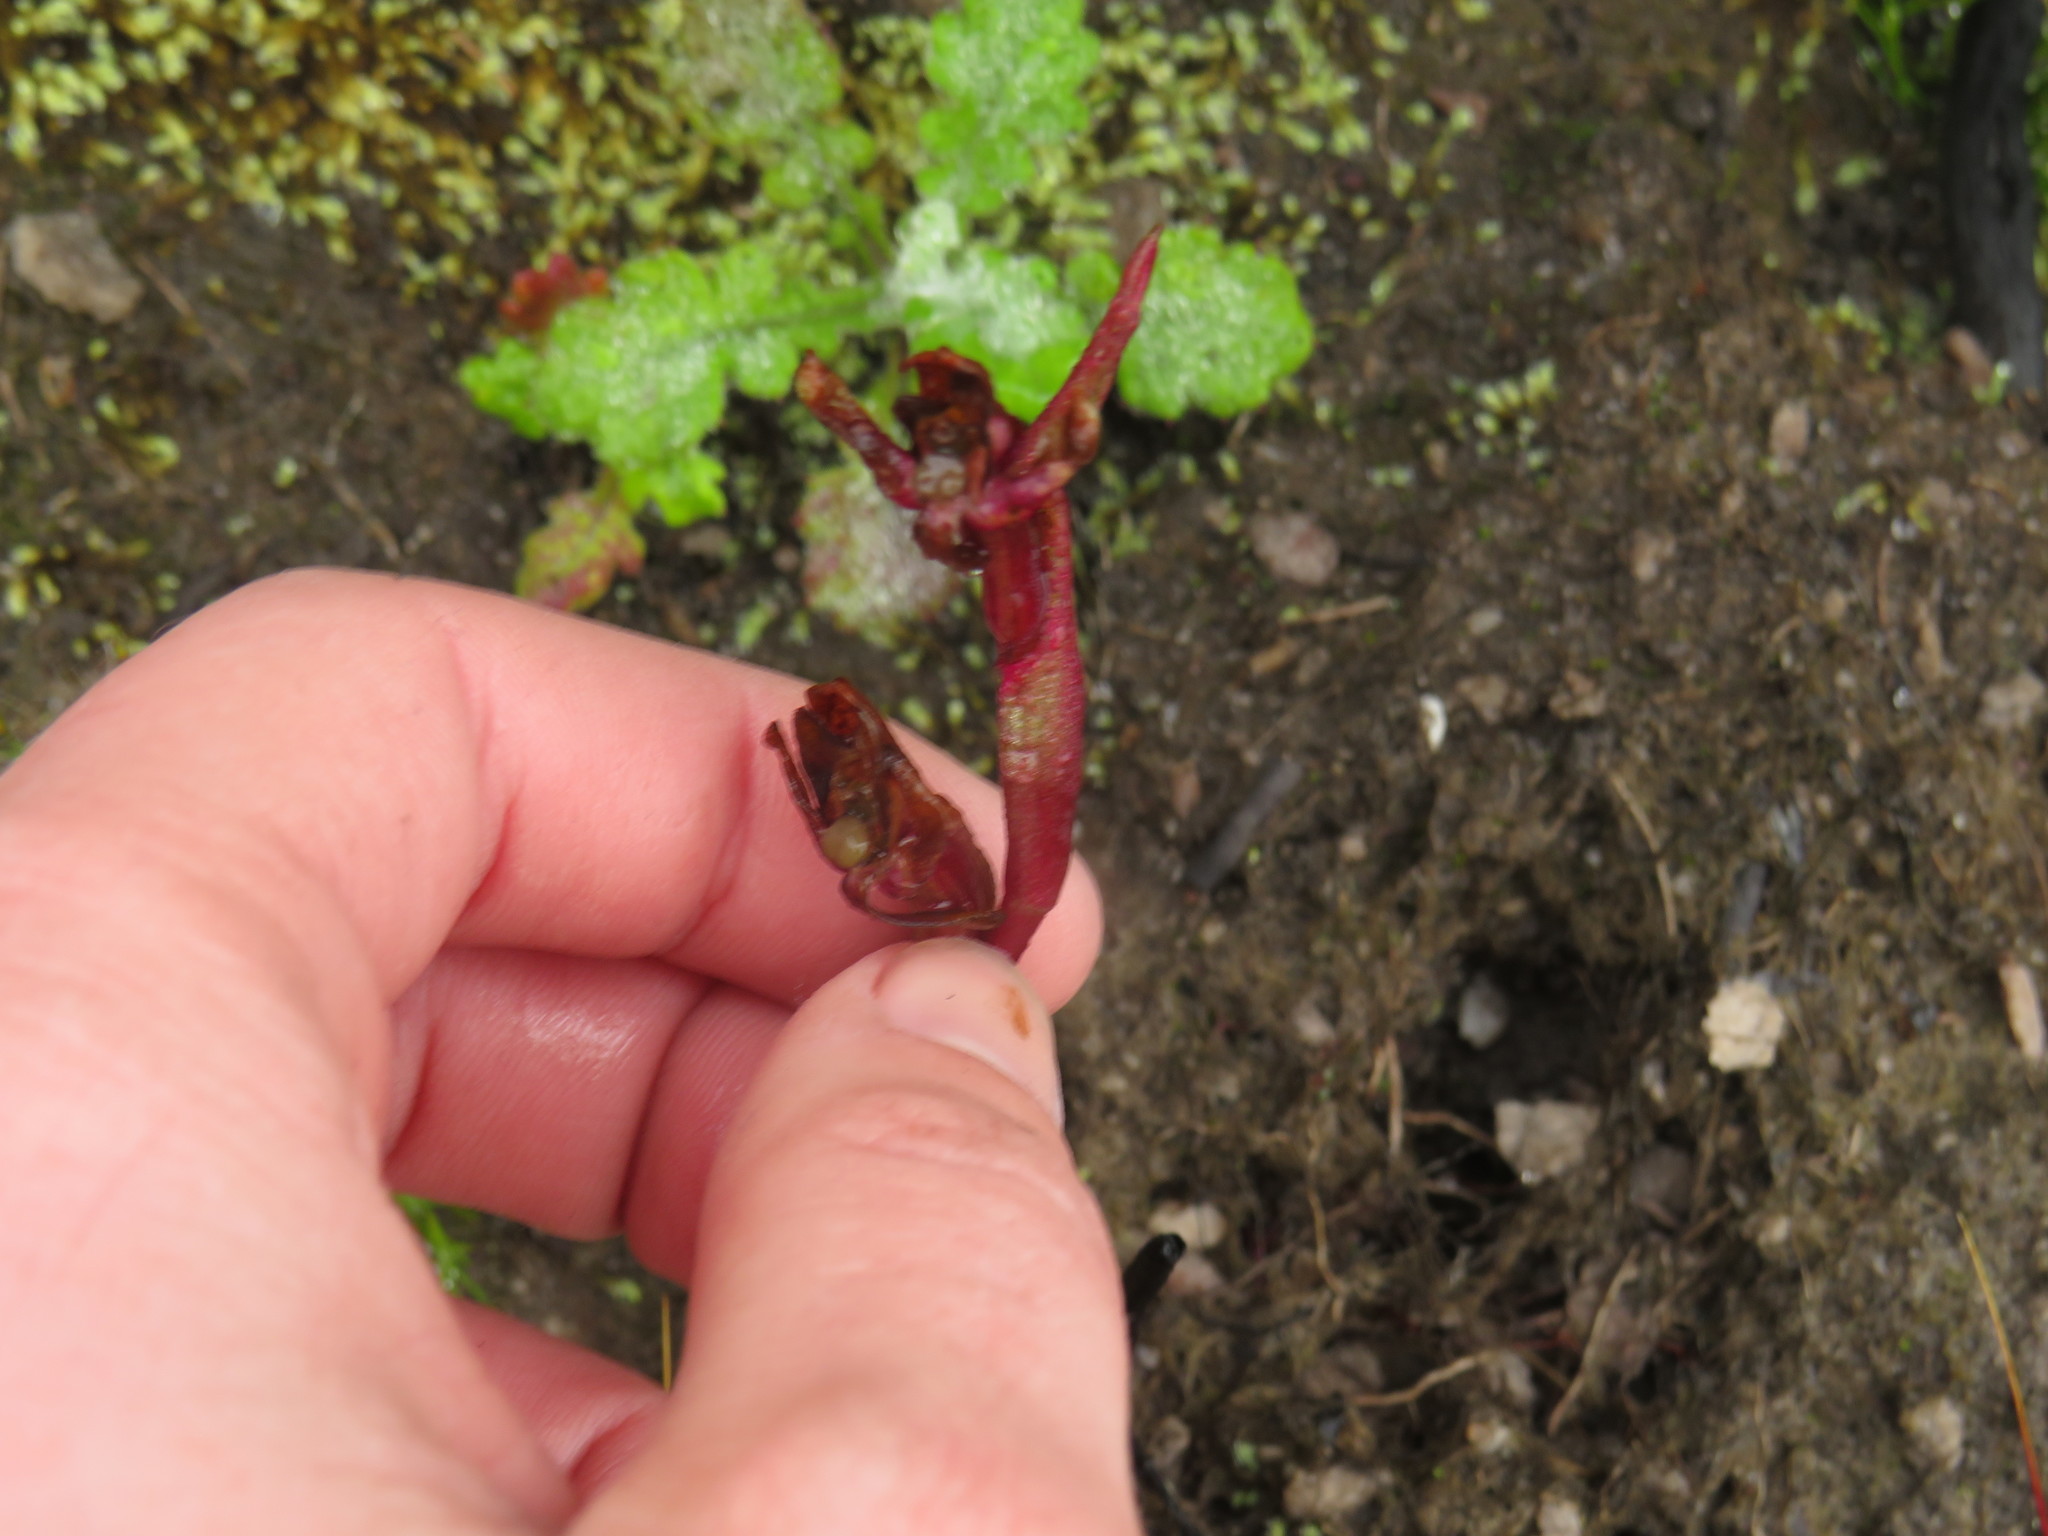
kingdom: Plantae
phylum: Tracheophyta
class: Liliopsida
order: Asparagales
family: Orchidaceae
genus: Disa
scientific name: Disa ophrydea
